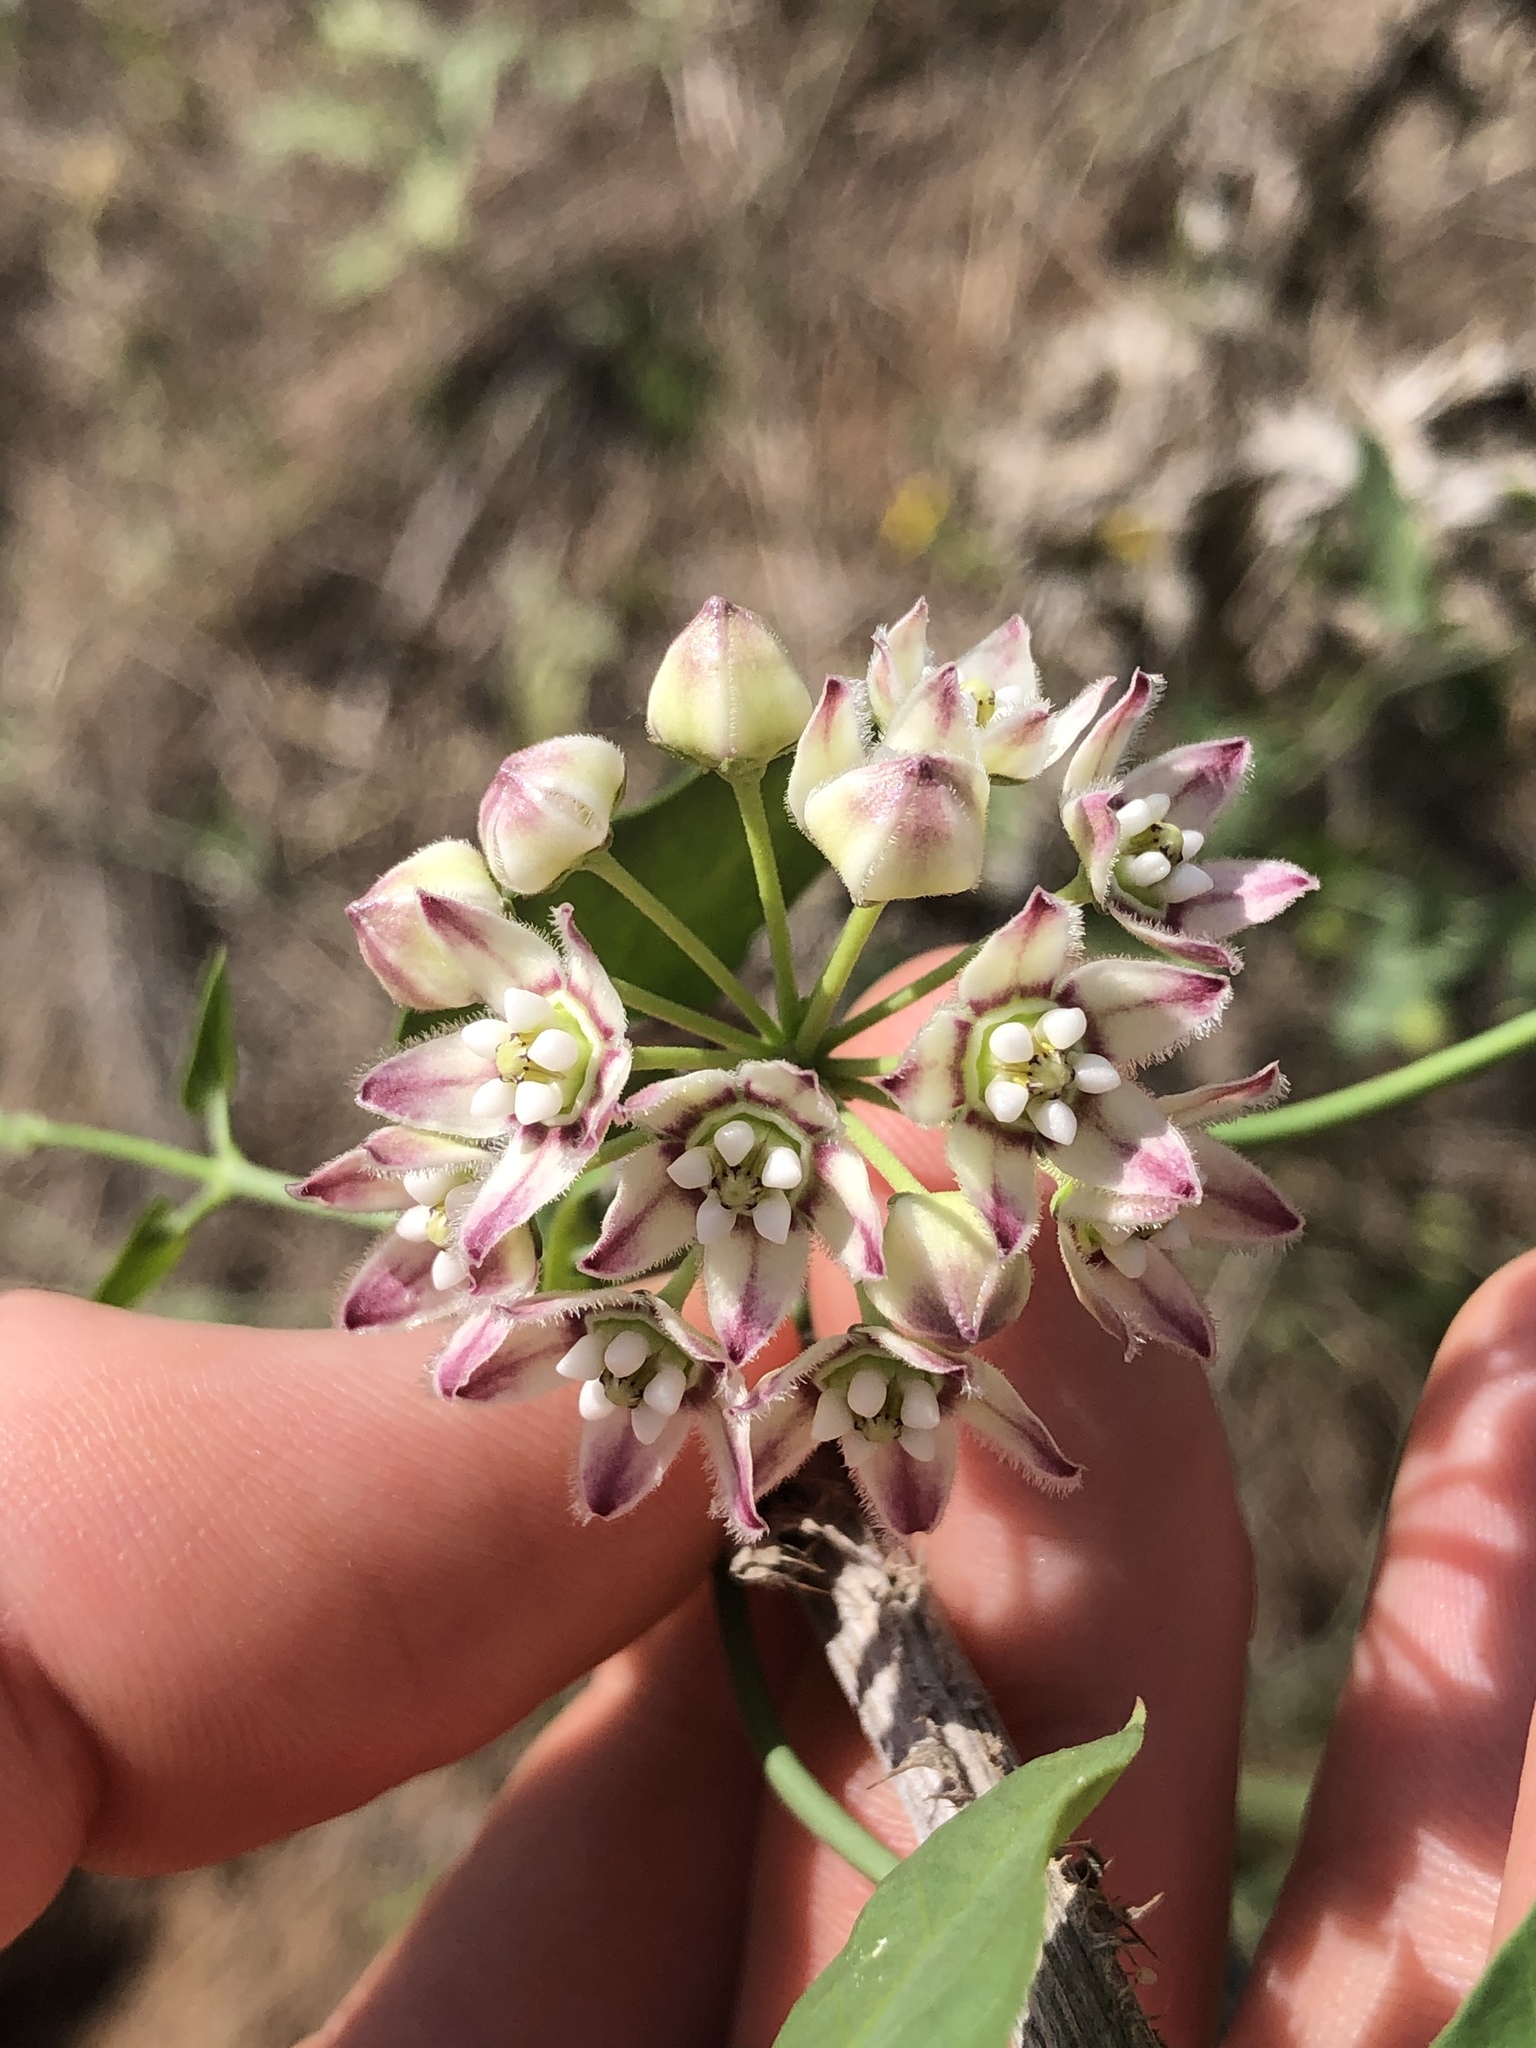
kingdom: Plantae
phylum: Tracheophyta
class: Magnoliopsida
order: Gentianales
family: Apocynaceae
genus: Funastrum
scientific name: Funastrum cynanchoides
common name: Climbing-milkweed
